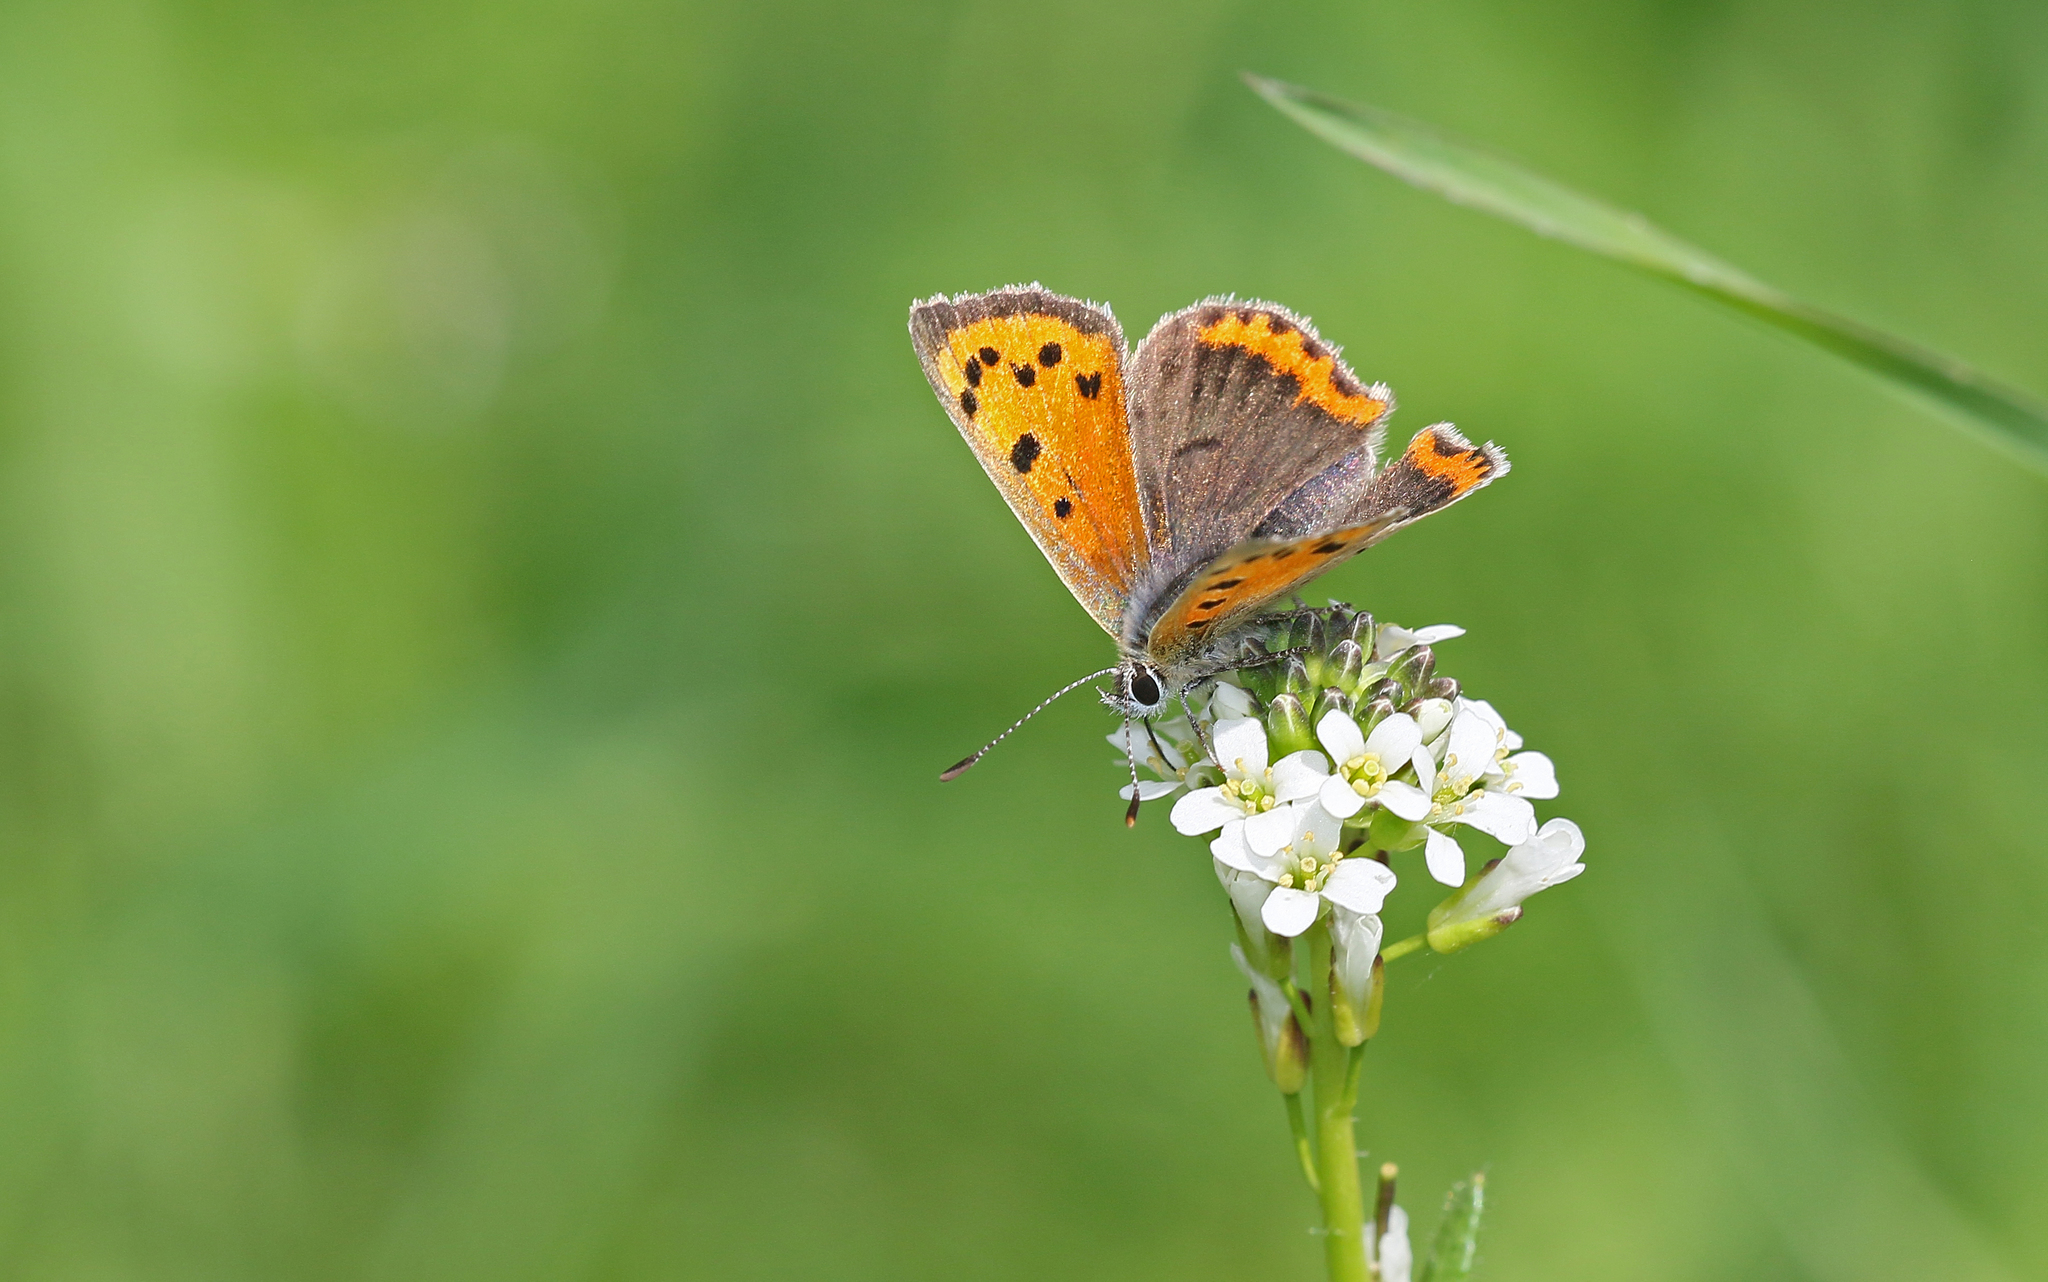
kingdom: Animalia
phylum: Arthropoda
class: Insecta
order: Lepidoptera
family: Lycaenidae
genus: Lycaena
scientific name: Lycaena phlaeas
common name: Small copper
